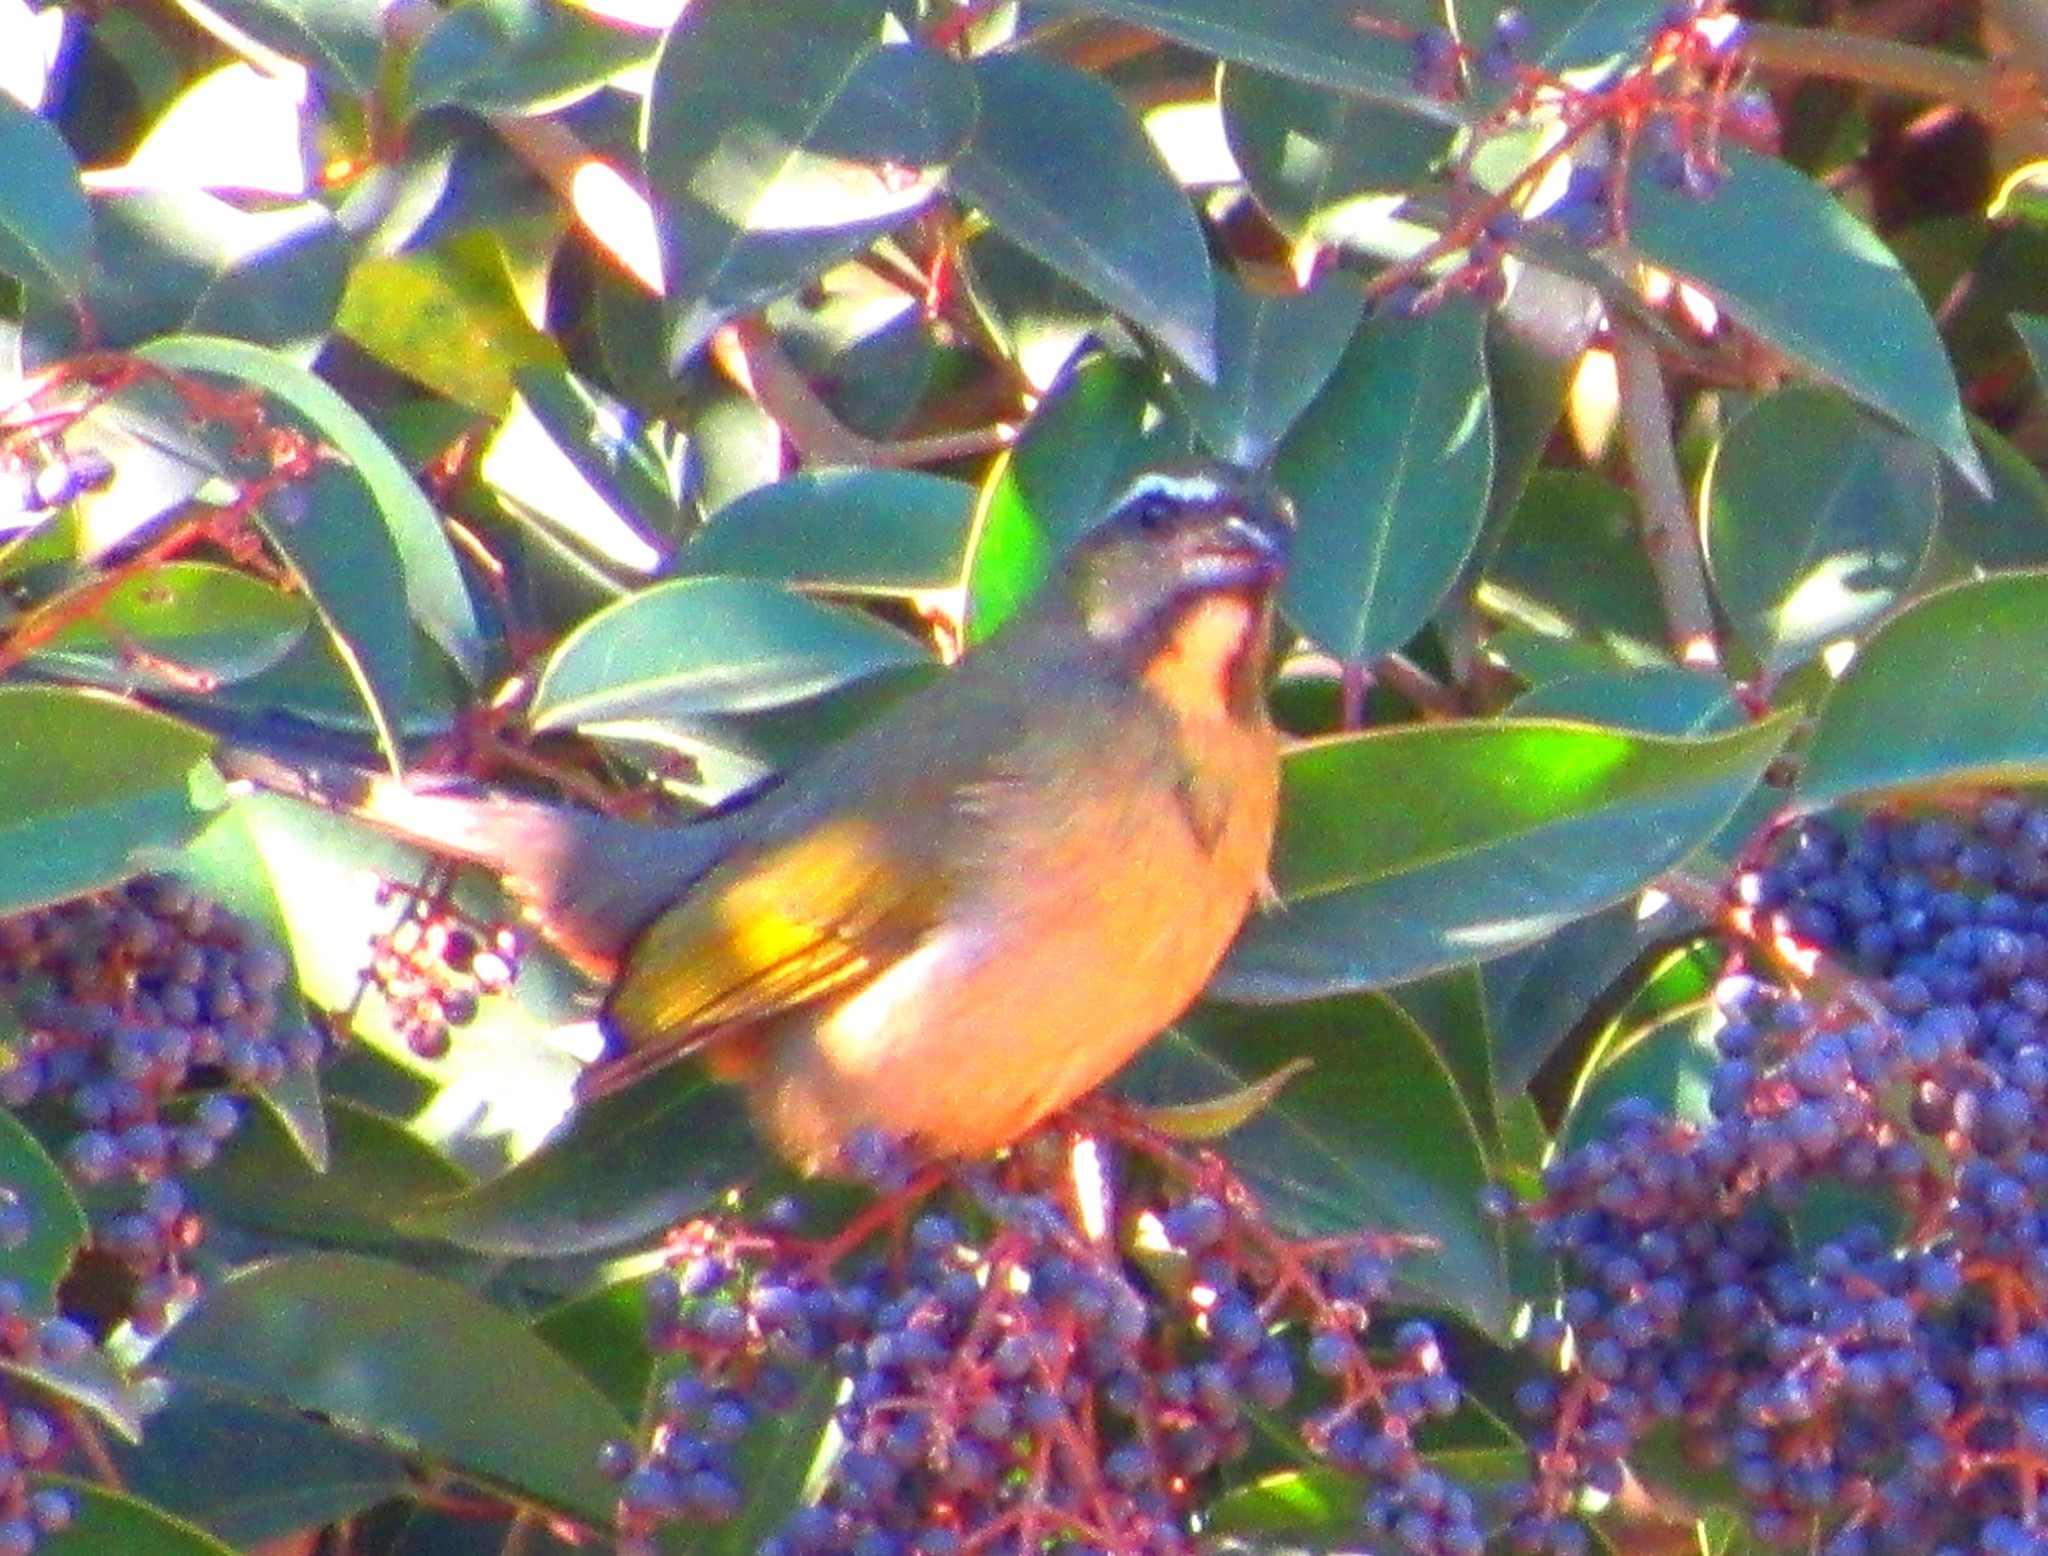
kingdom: Animalia
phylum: Chordata
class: Aves
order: Passeriformes
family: Thraupidae
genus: Saltator
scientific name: Saltator similis
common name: Green-winged saltator
